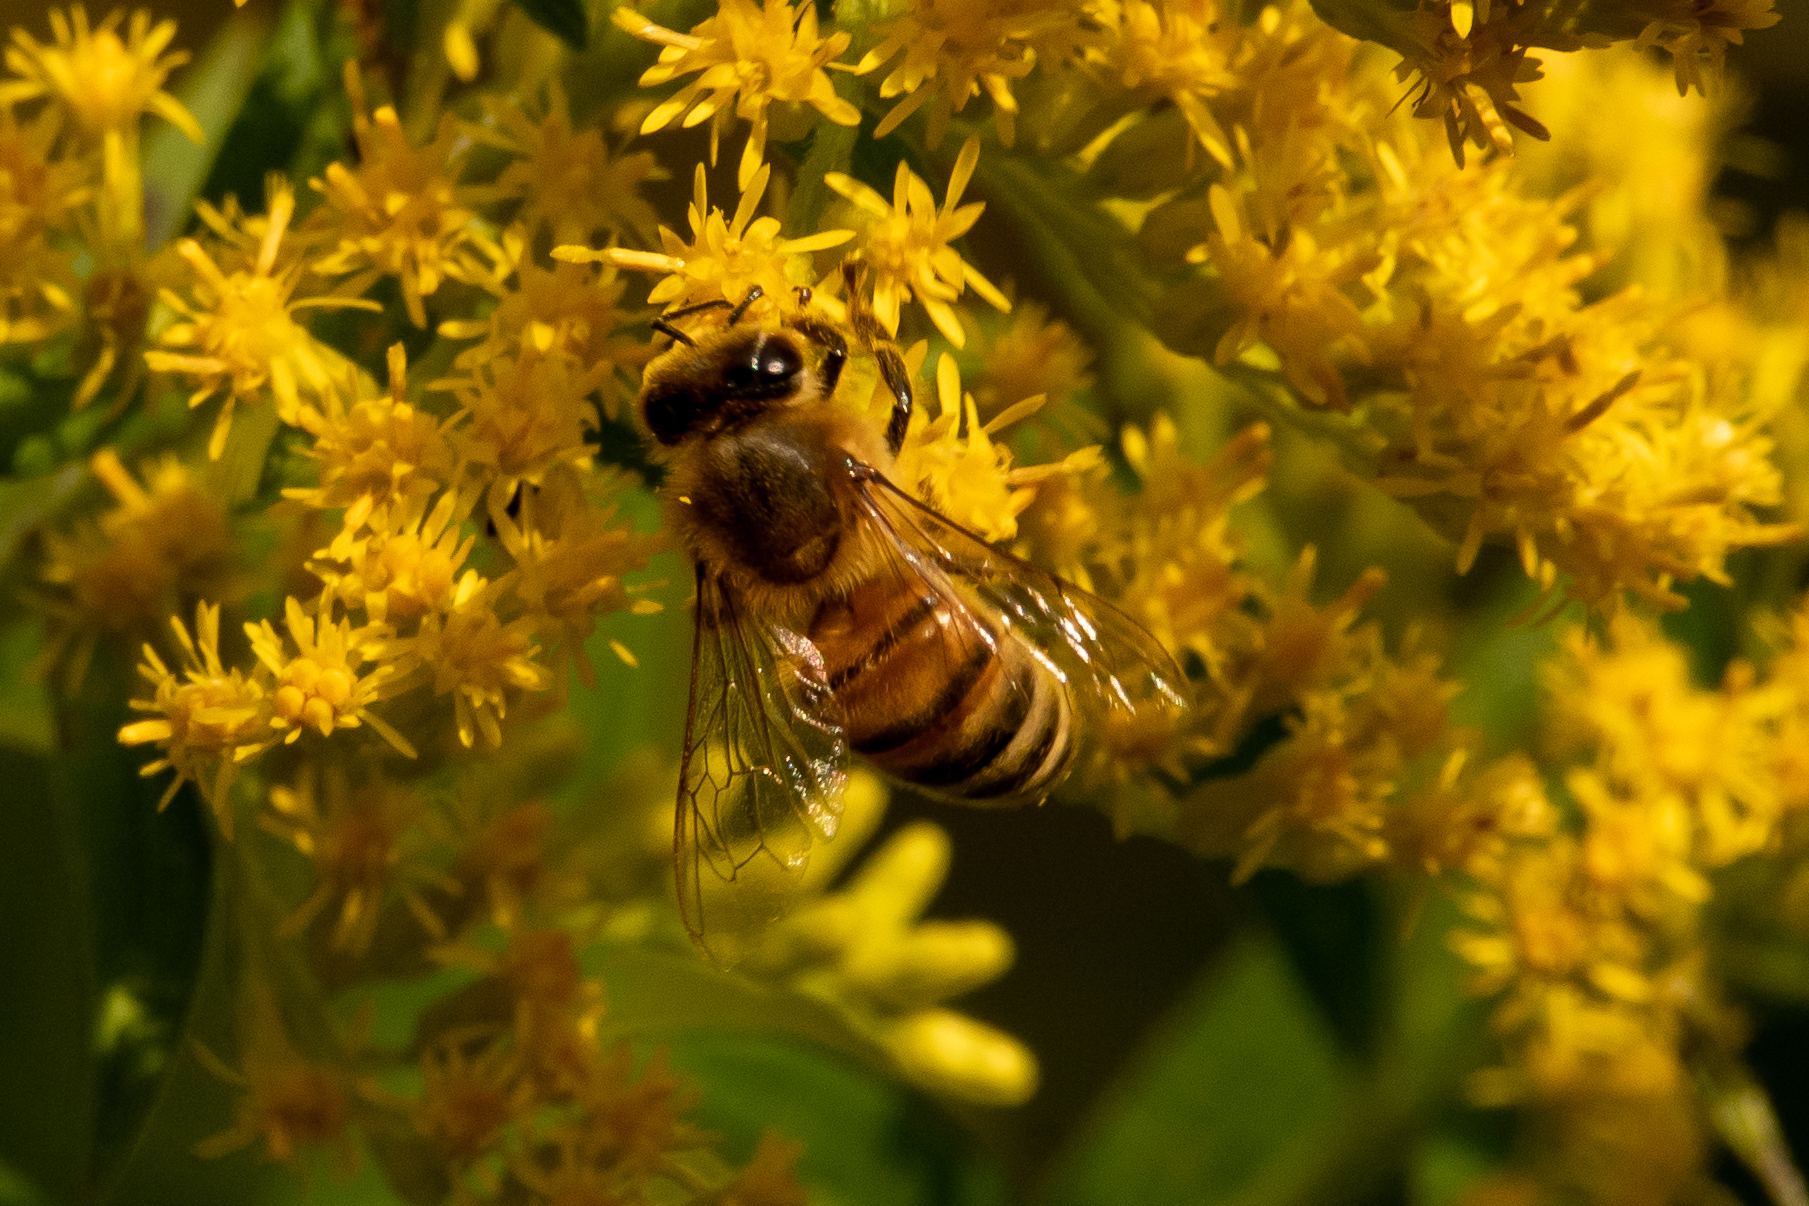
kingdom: Animalia
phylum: Arthropoda
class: Insecta
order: Hymenoptera
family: Apidae
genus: Apis
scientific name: Apis mellifera
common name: Honey bee
